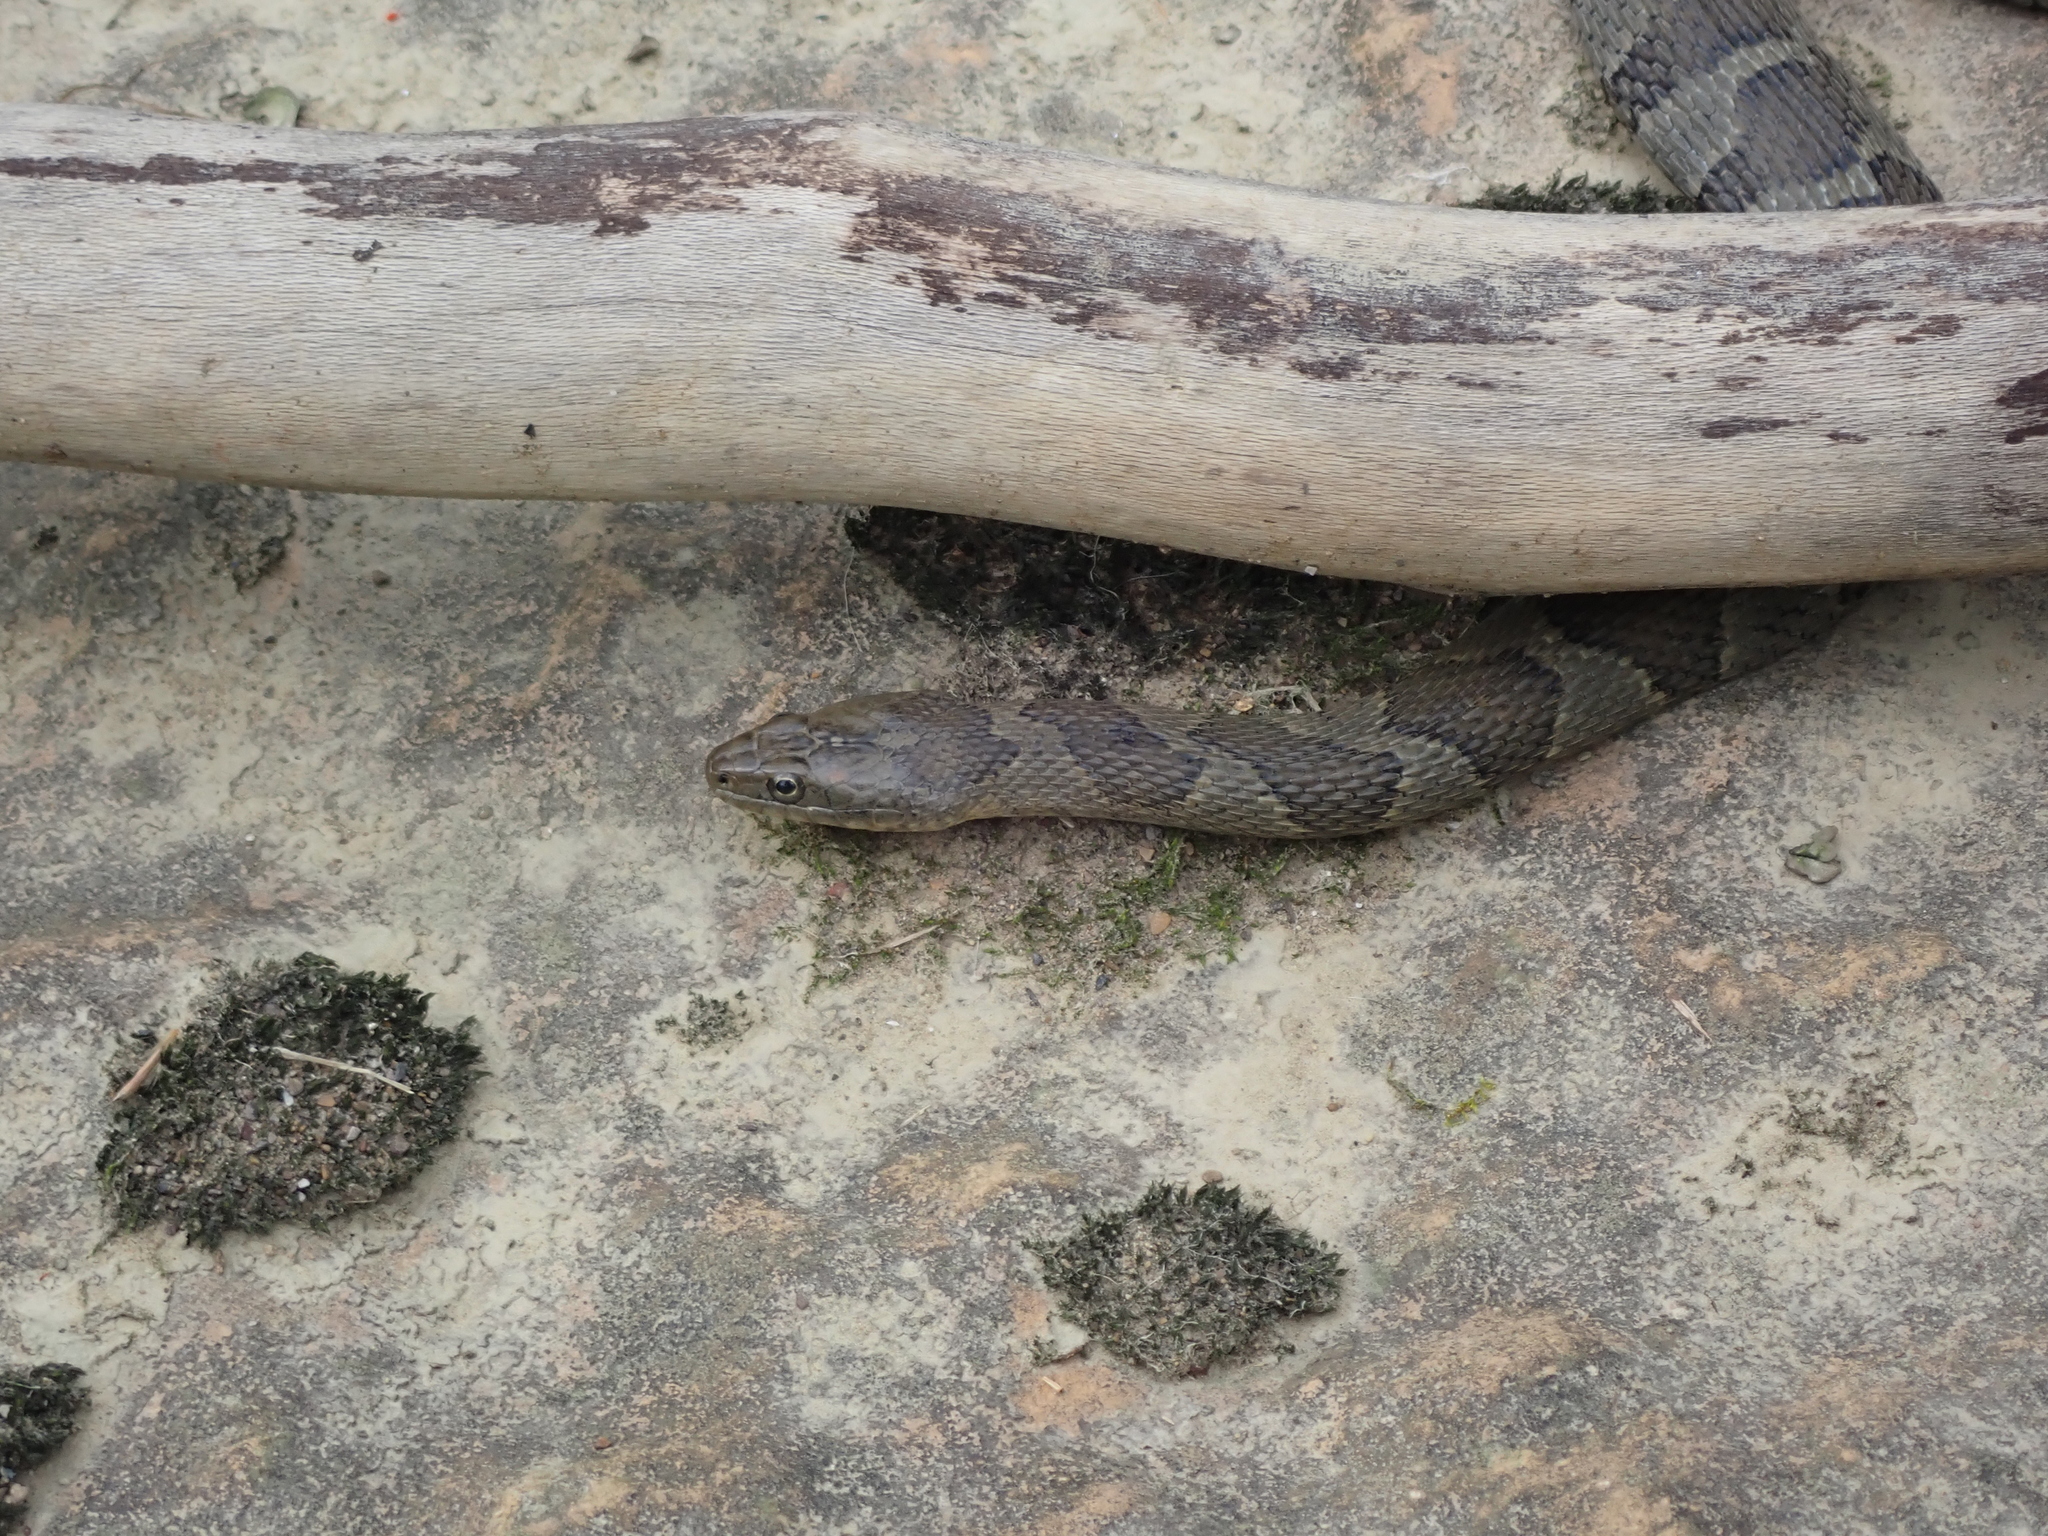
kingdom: Animalia
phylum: Chordata
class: Squamata
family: Colubridae
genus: Nerodia
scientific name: Nerodia sipedon
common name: Northern water snake
